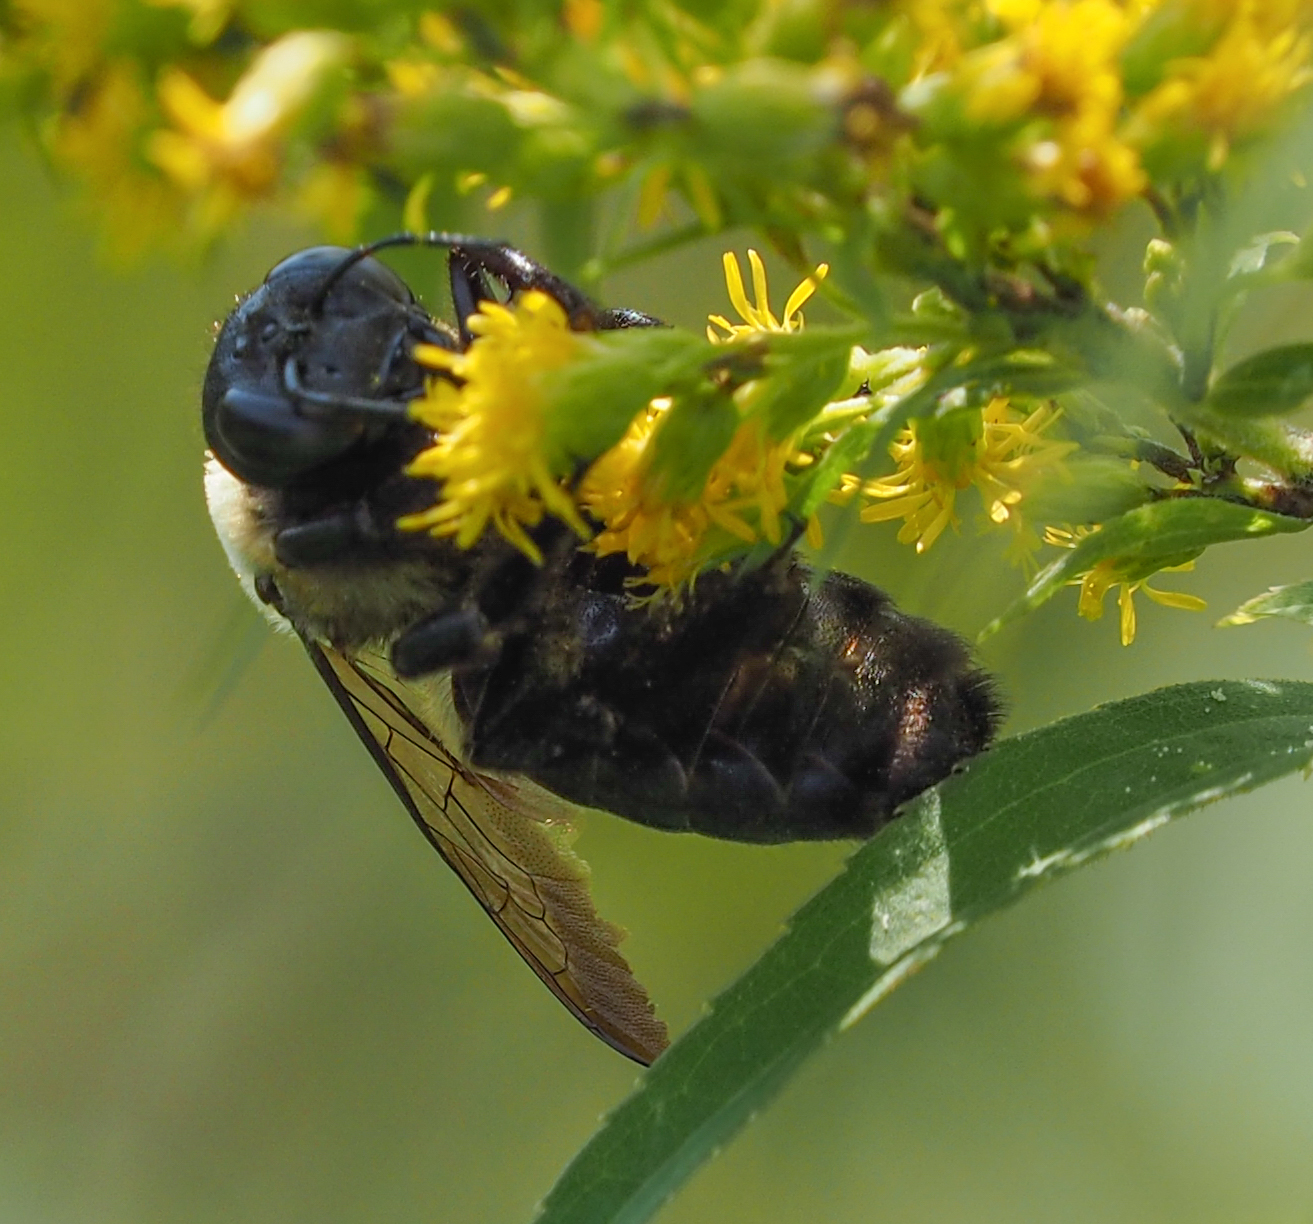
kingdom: Animalia
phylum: Arthropoda
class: Insecta
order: Hymenoptera
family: Apidae
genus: Xylocopa
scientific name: Xylocopa virginica
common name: Carpenter bee
